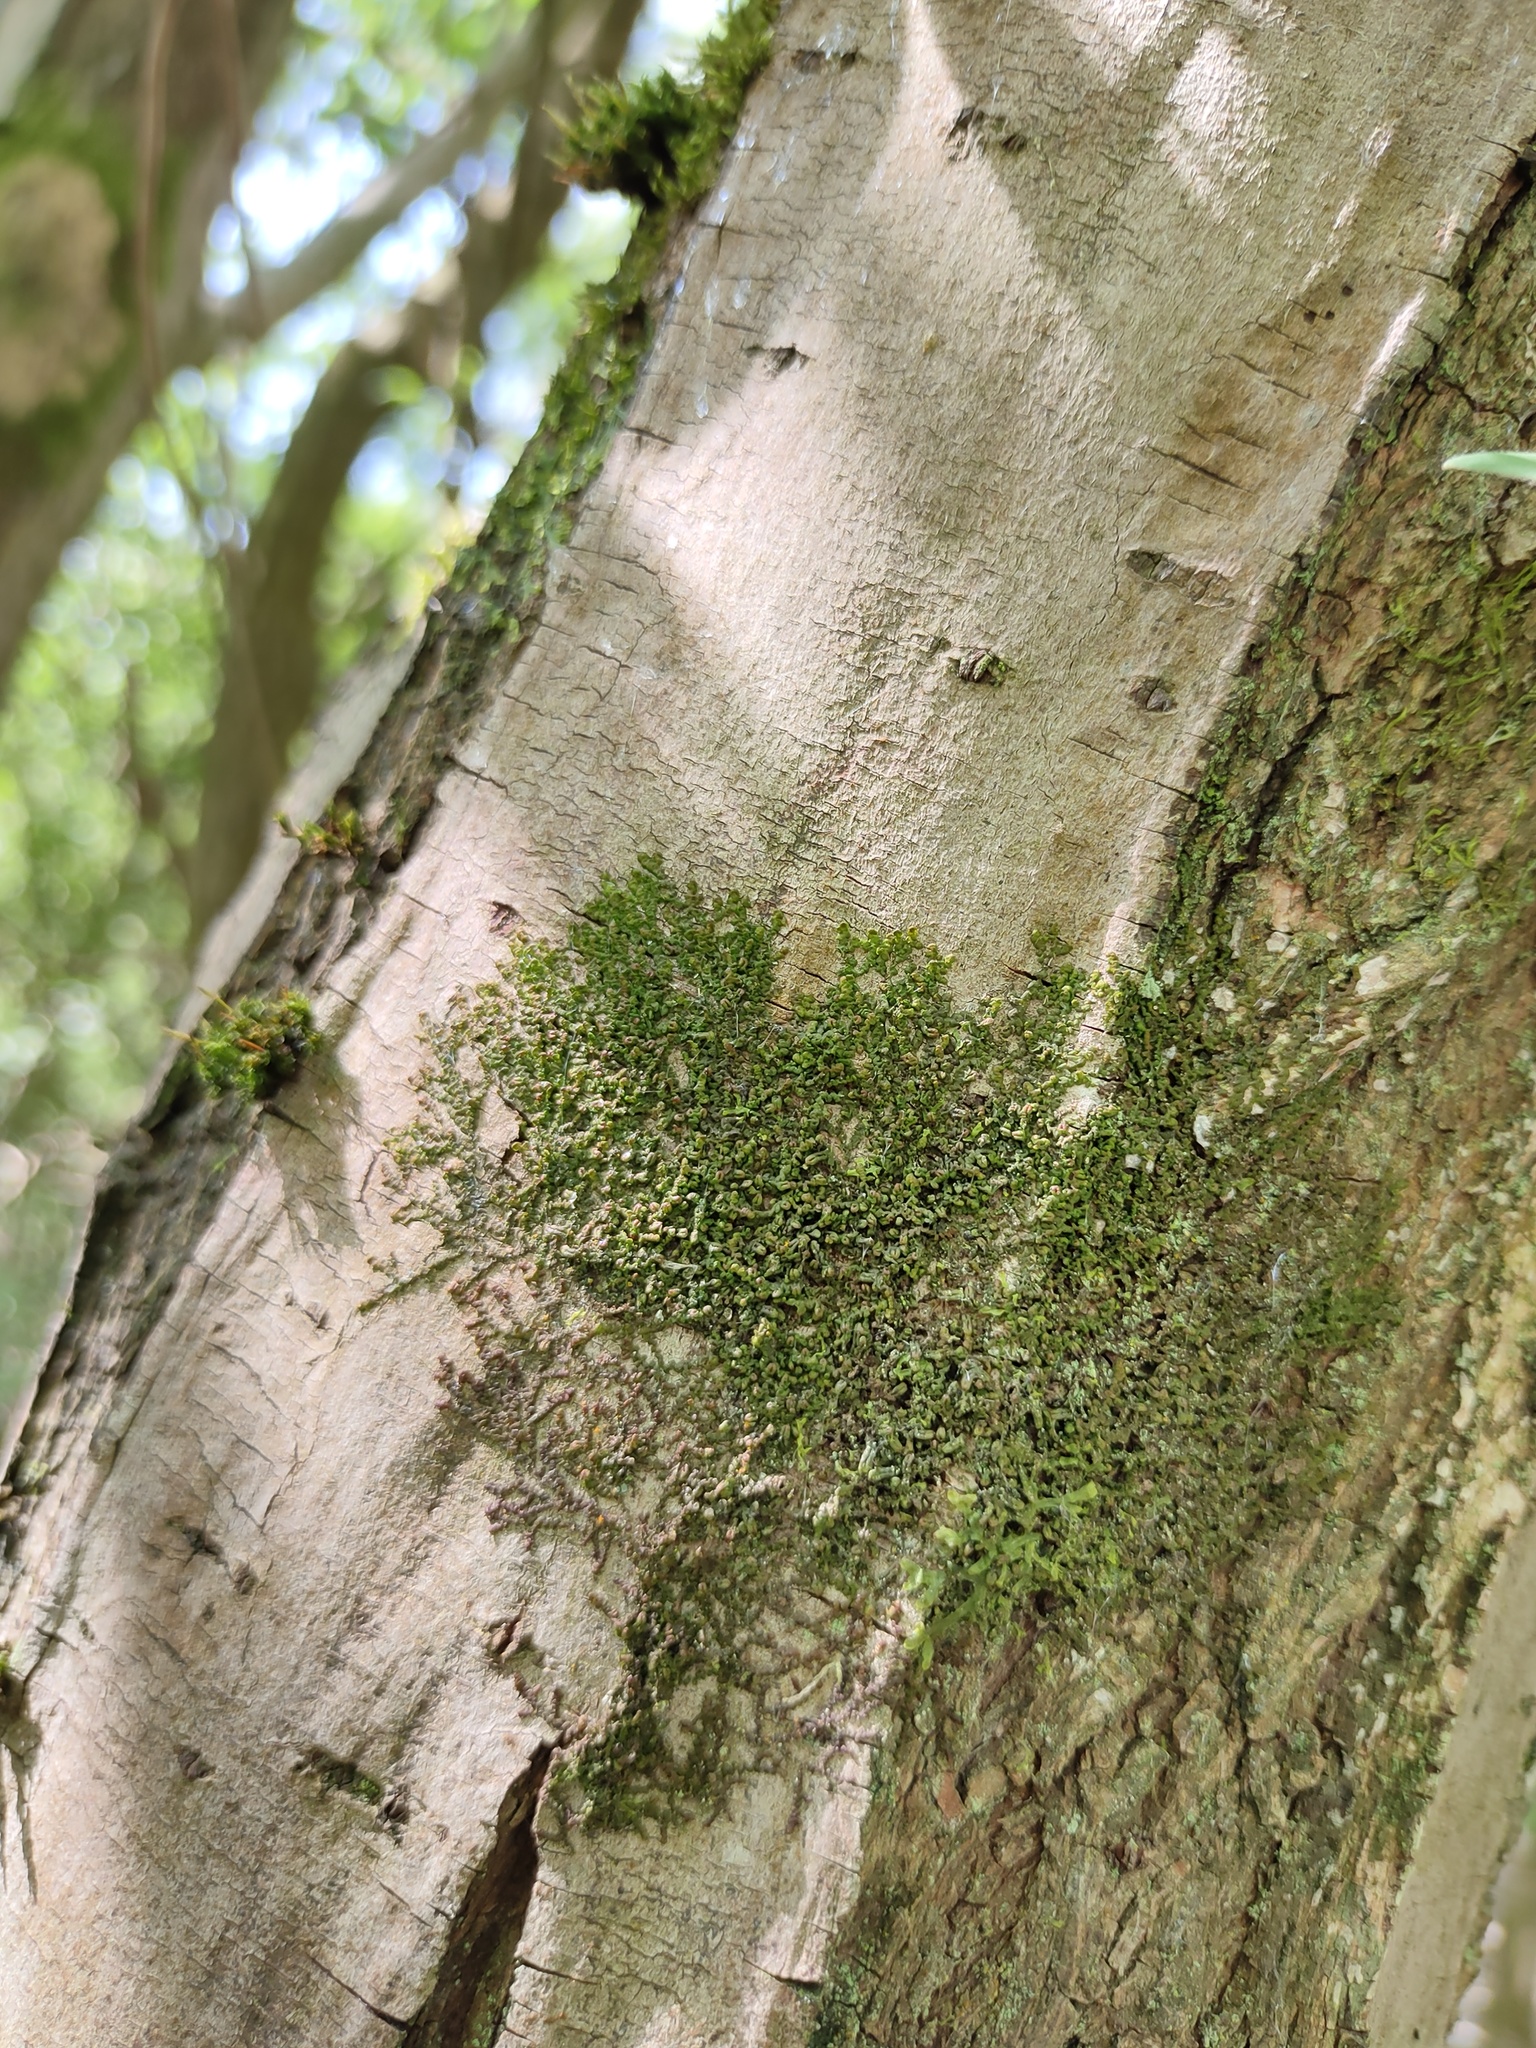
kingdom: Plantae
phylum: Marchantiophyta
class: Jungermanniopsida
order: Porellales
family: Frullaniaceae
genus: Frullania
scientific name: Frullania dilatata
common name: Dilated scalewort
